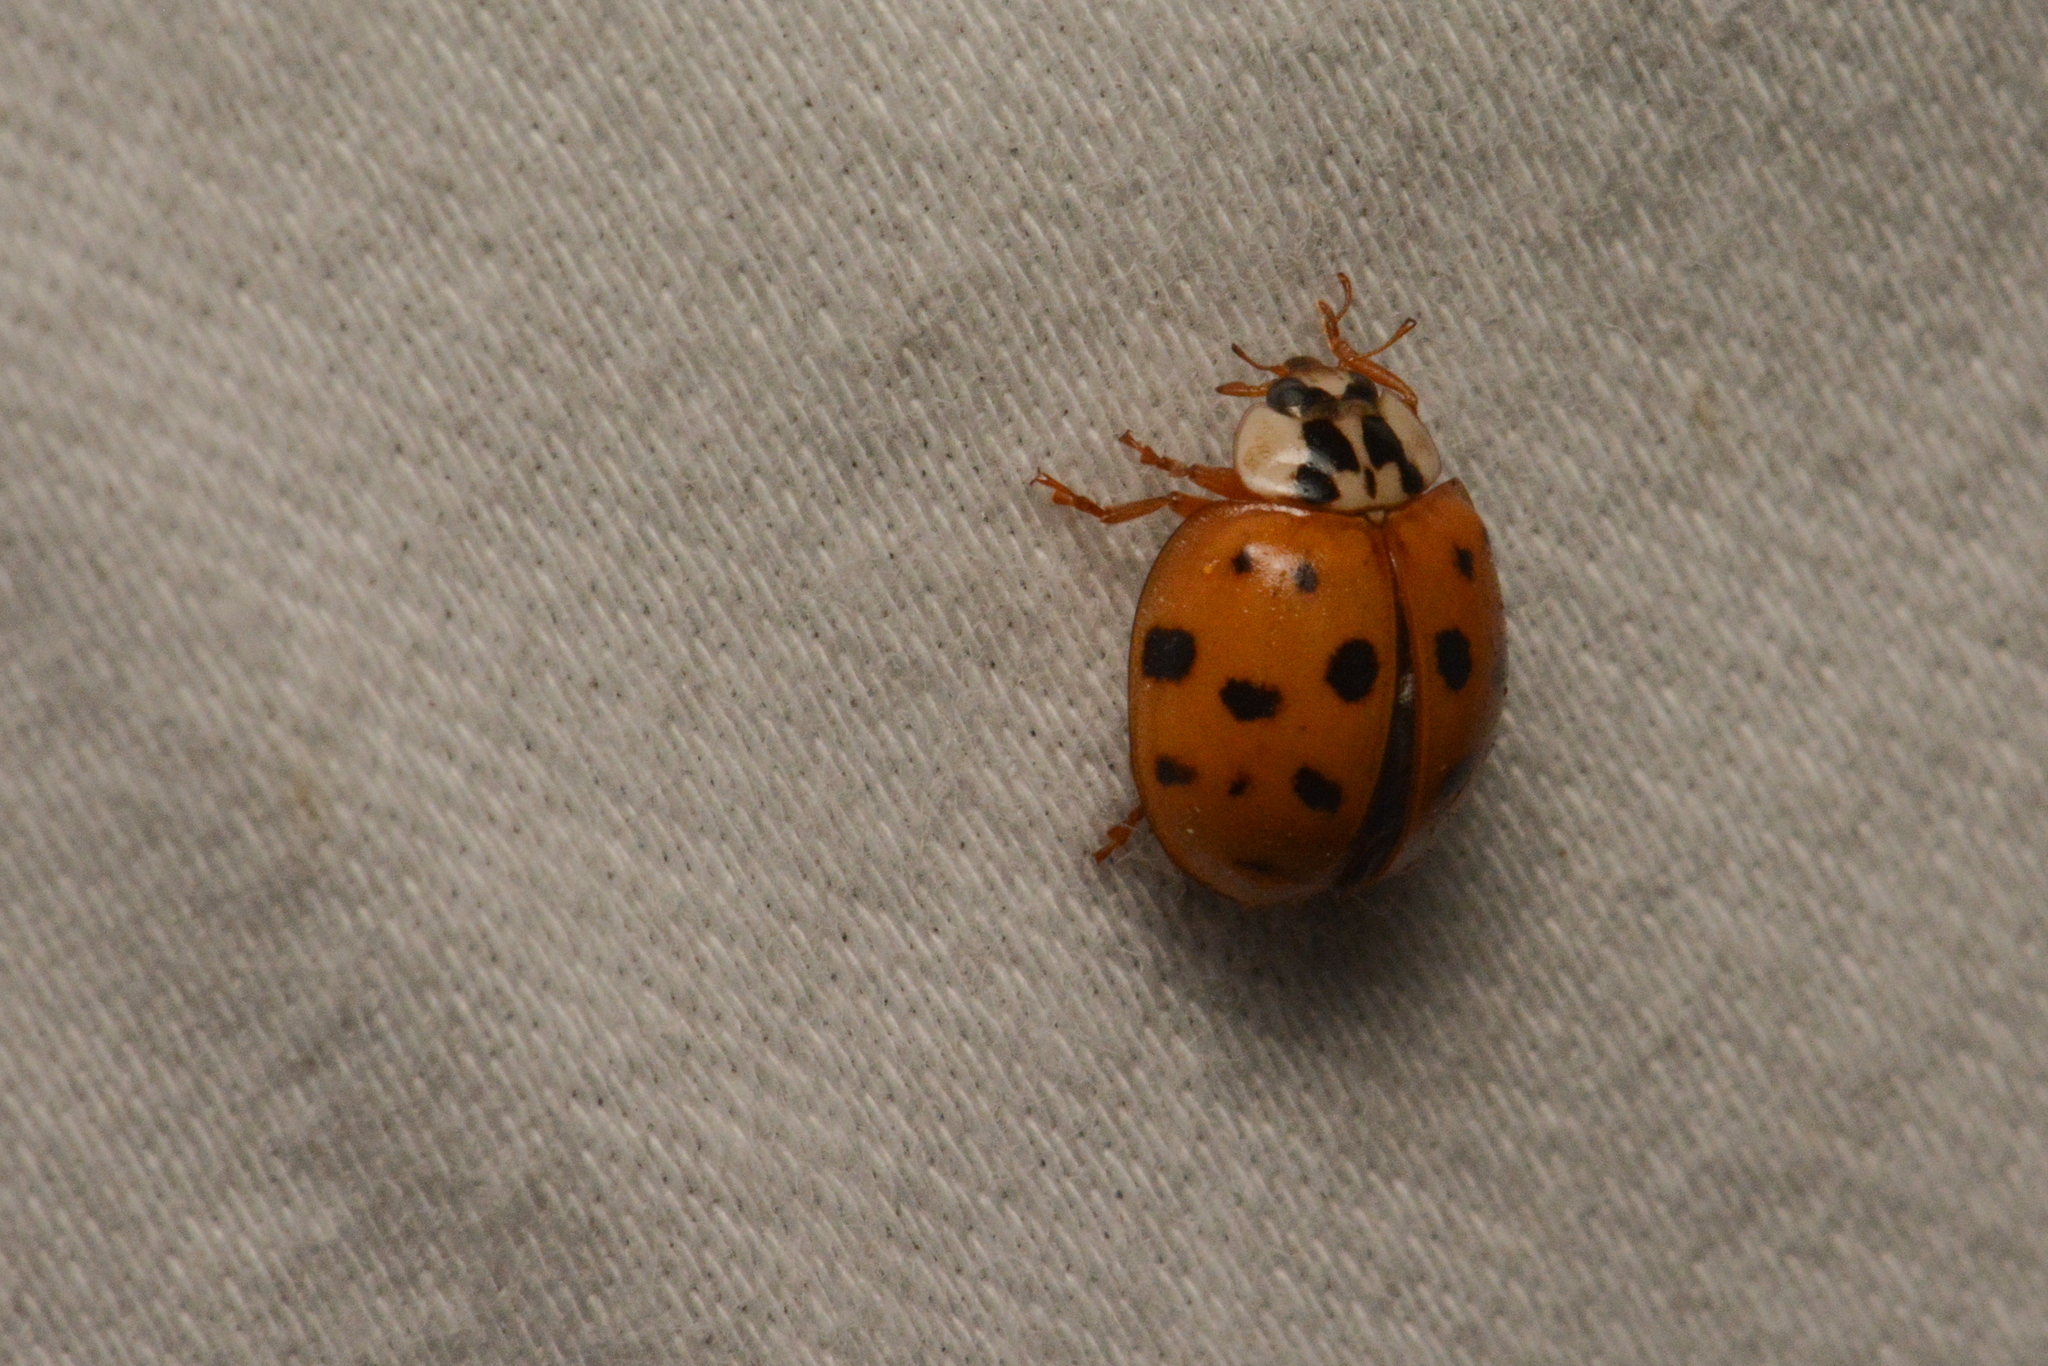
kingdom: Animalia
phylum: Arthropoda
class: Insecta
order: Coleoptera
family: Coccinellidae
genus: Harmonia
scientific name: Harmonia axyridis
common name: Harlequin ladybird
